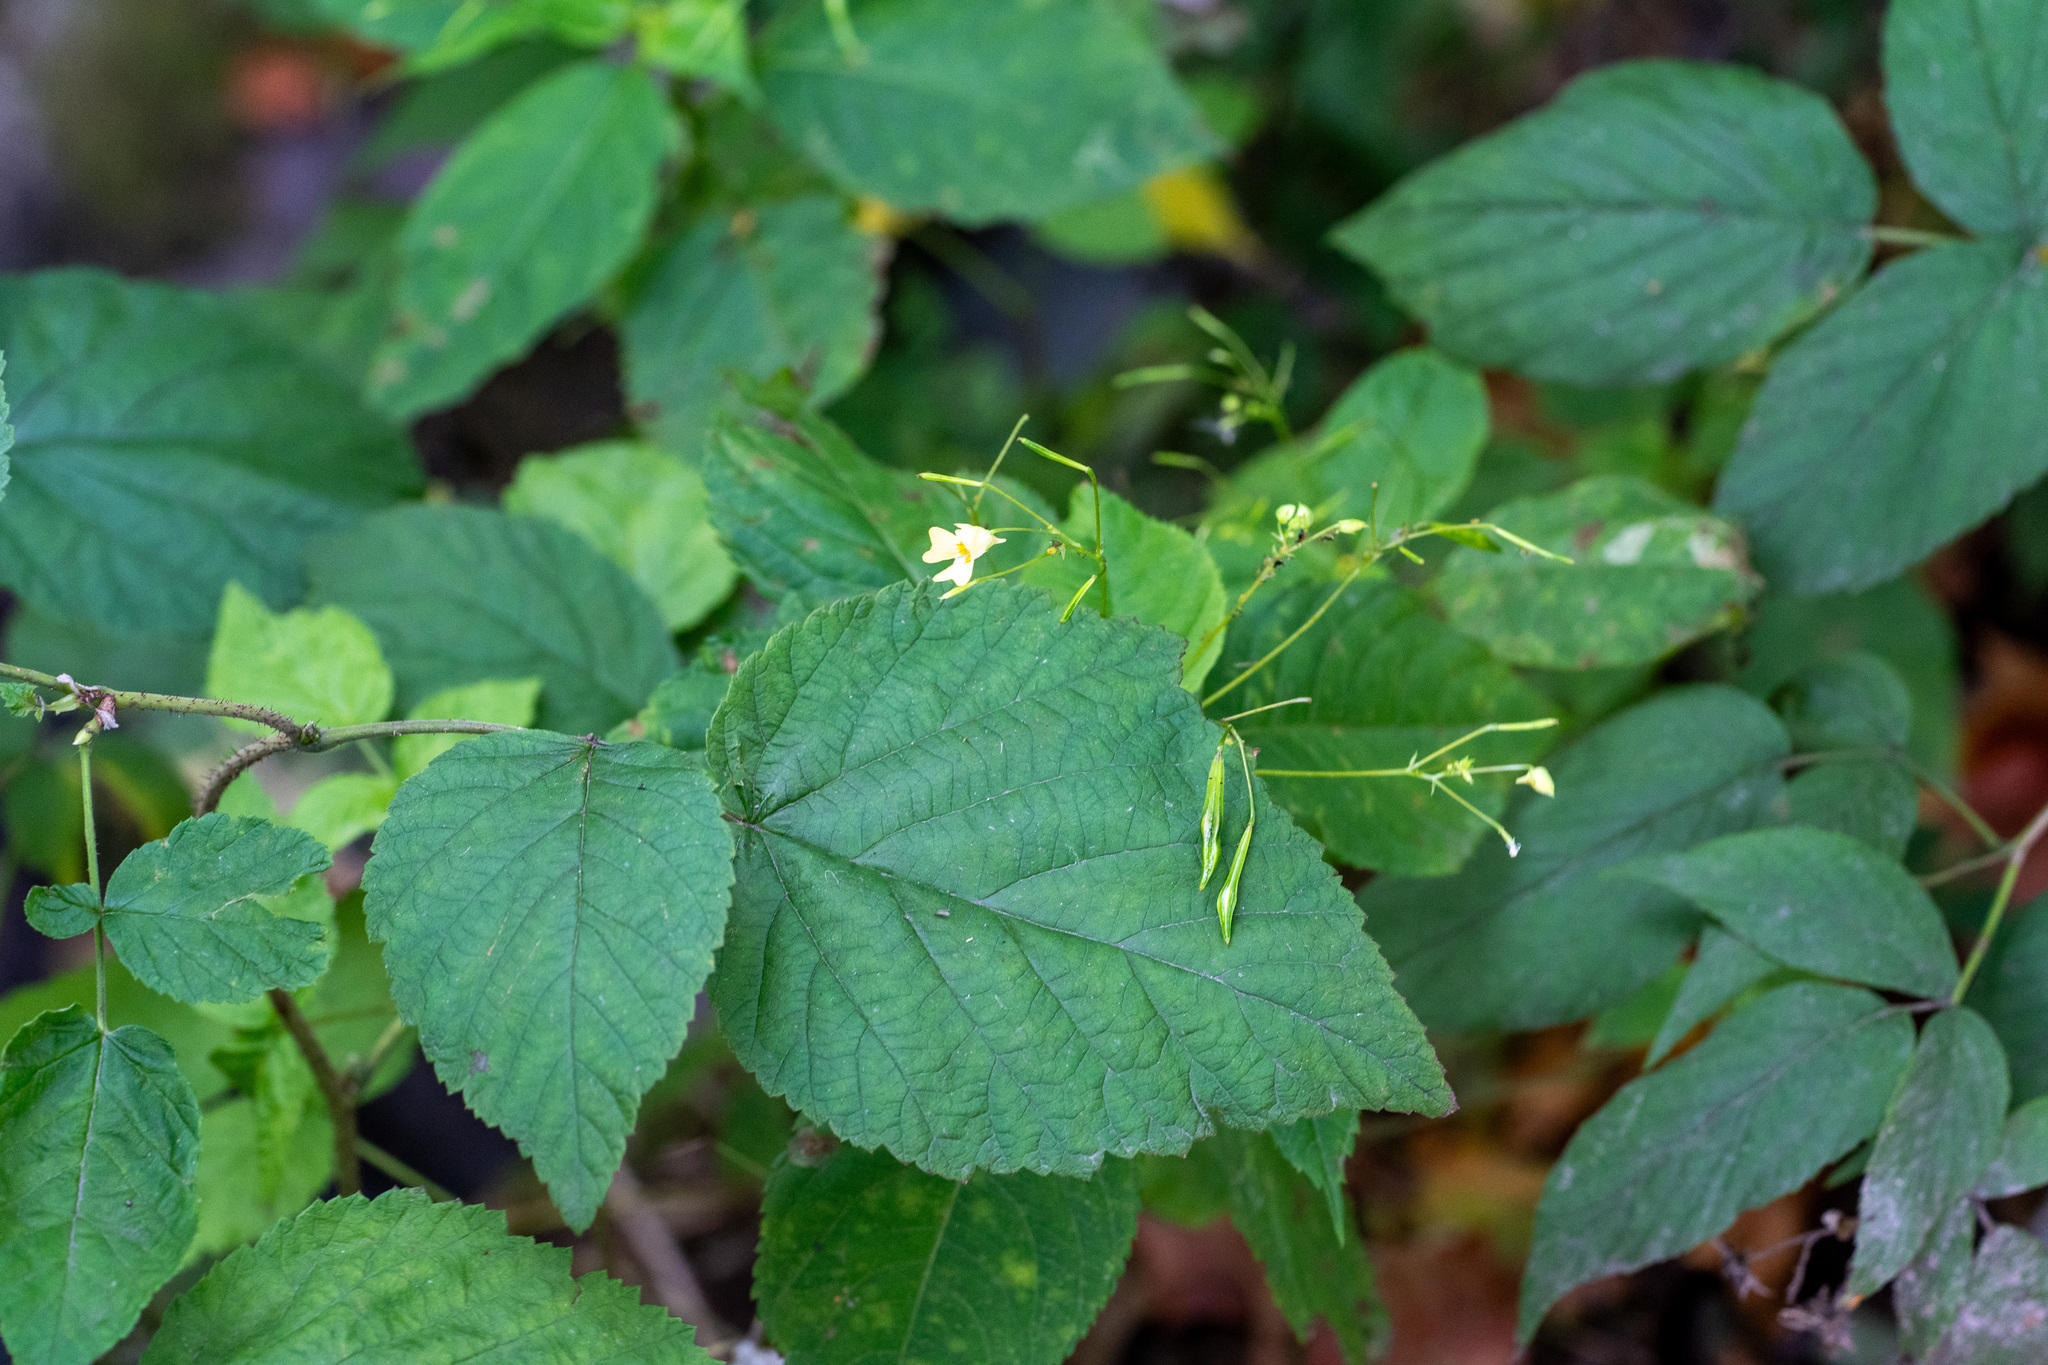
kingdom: Plantae
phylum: Tracheophyta
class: Magnoliopsida
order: Ericales
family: Balsaminaceae
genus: Impatiens
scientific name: Impatiens parviflora
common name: Small balsam
